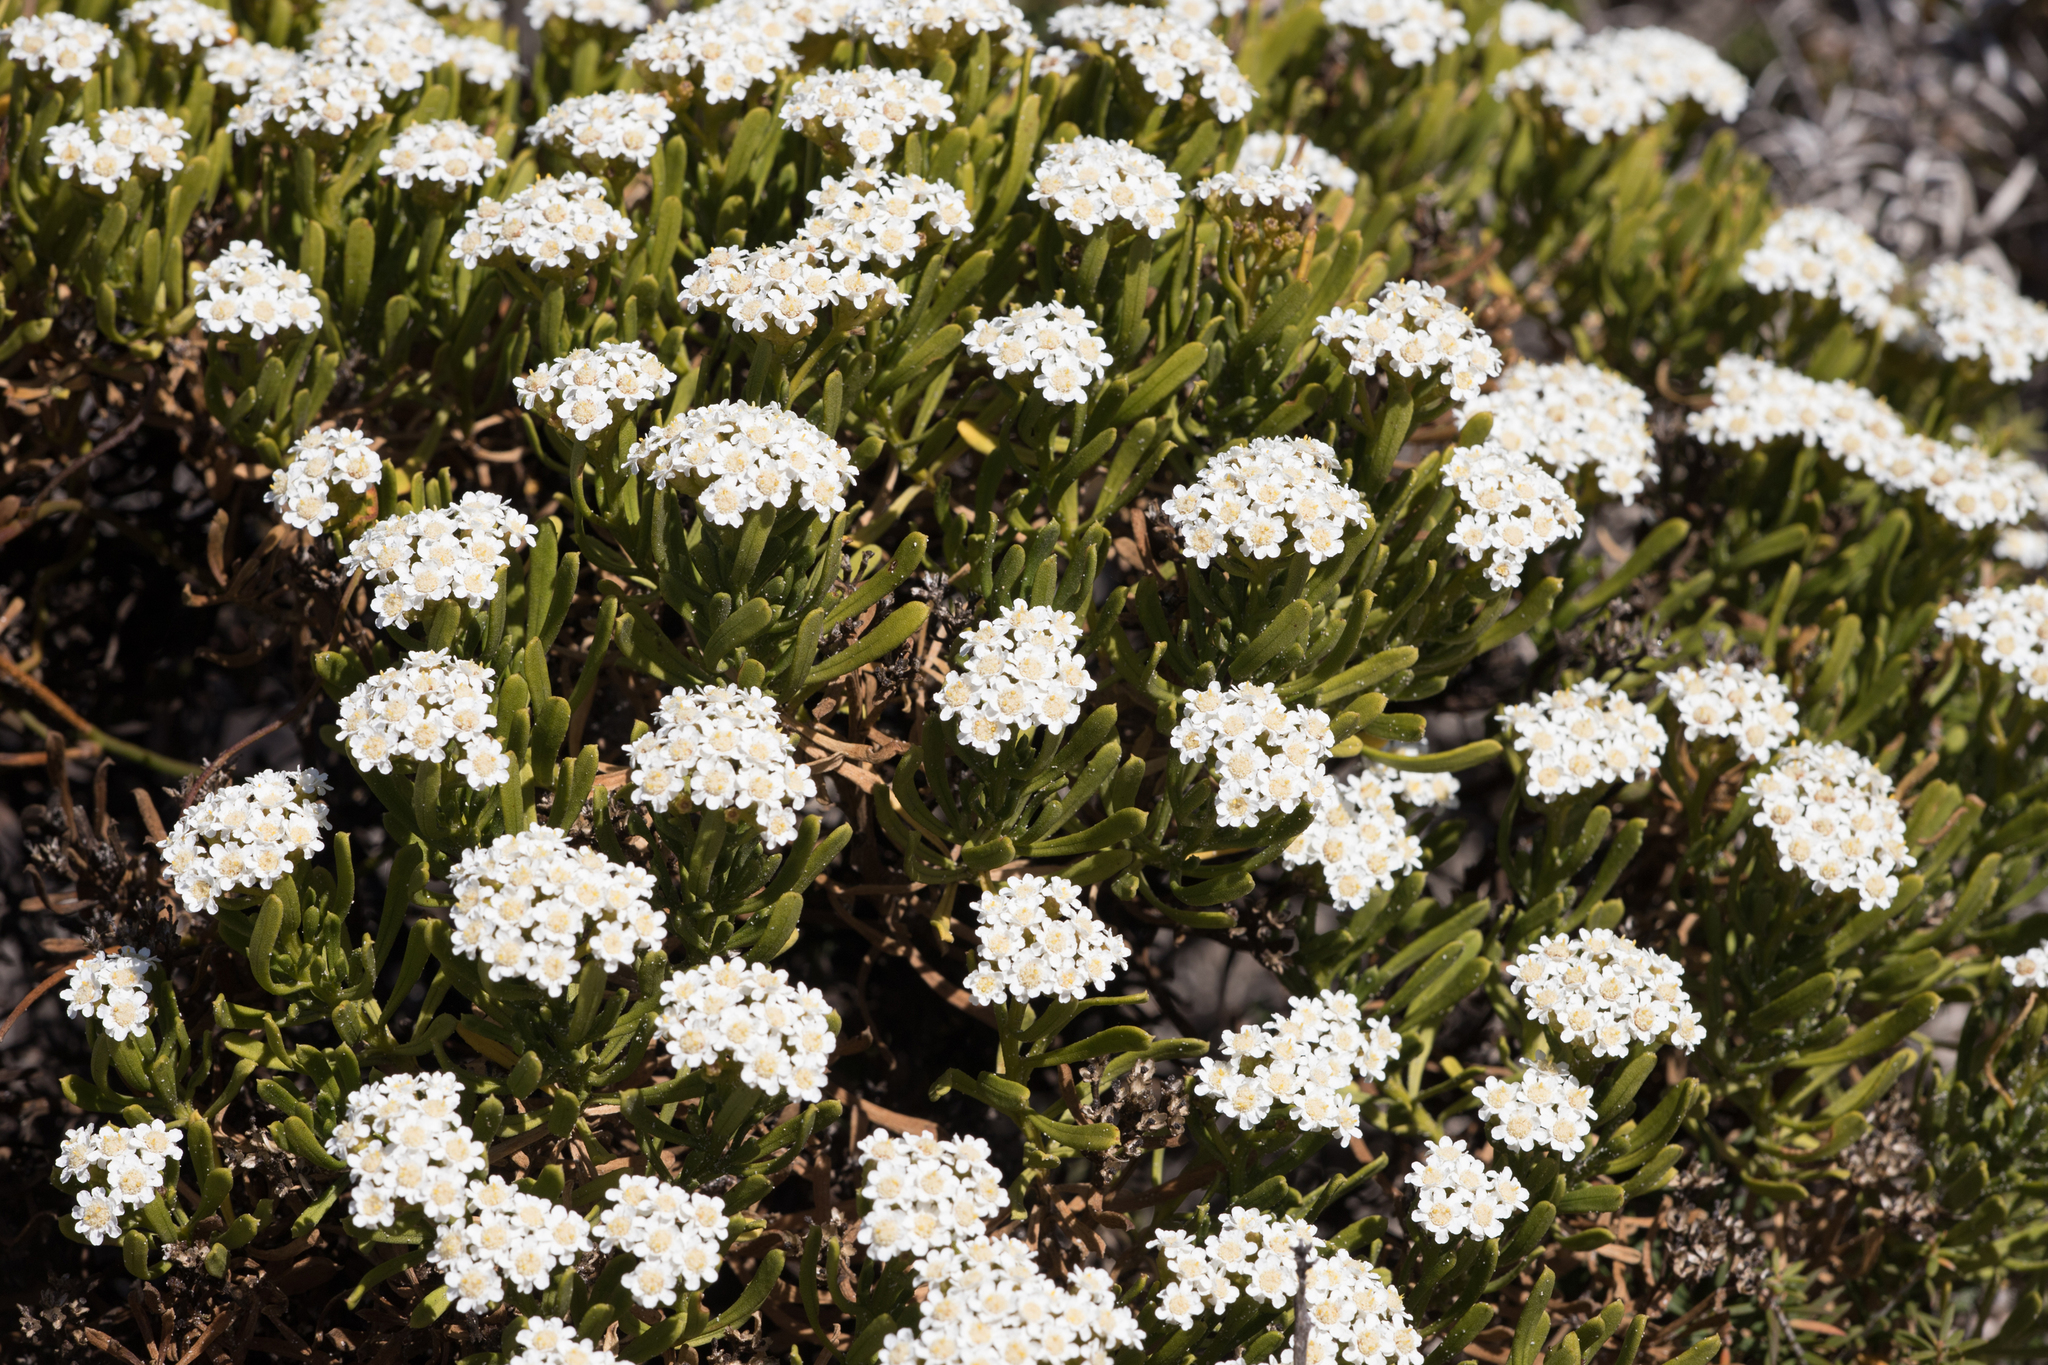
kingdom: Plantae
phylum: Tracheophyta
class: Magnoliopsida
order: Asterales
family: Asteraceae
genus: Ixodia
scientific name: Ixodia achillaeoides
